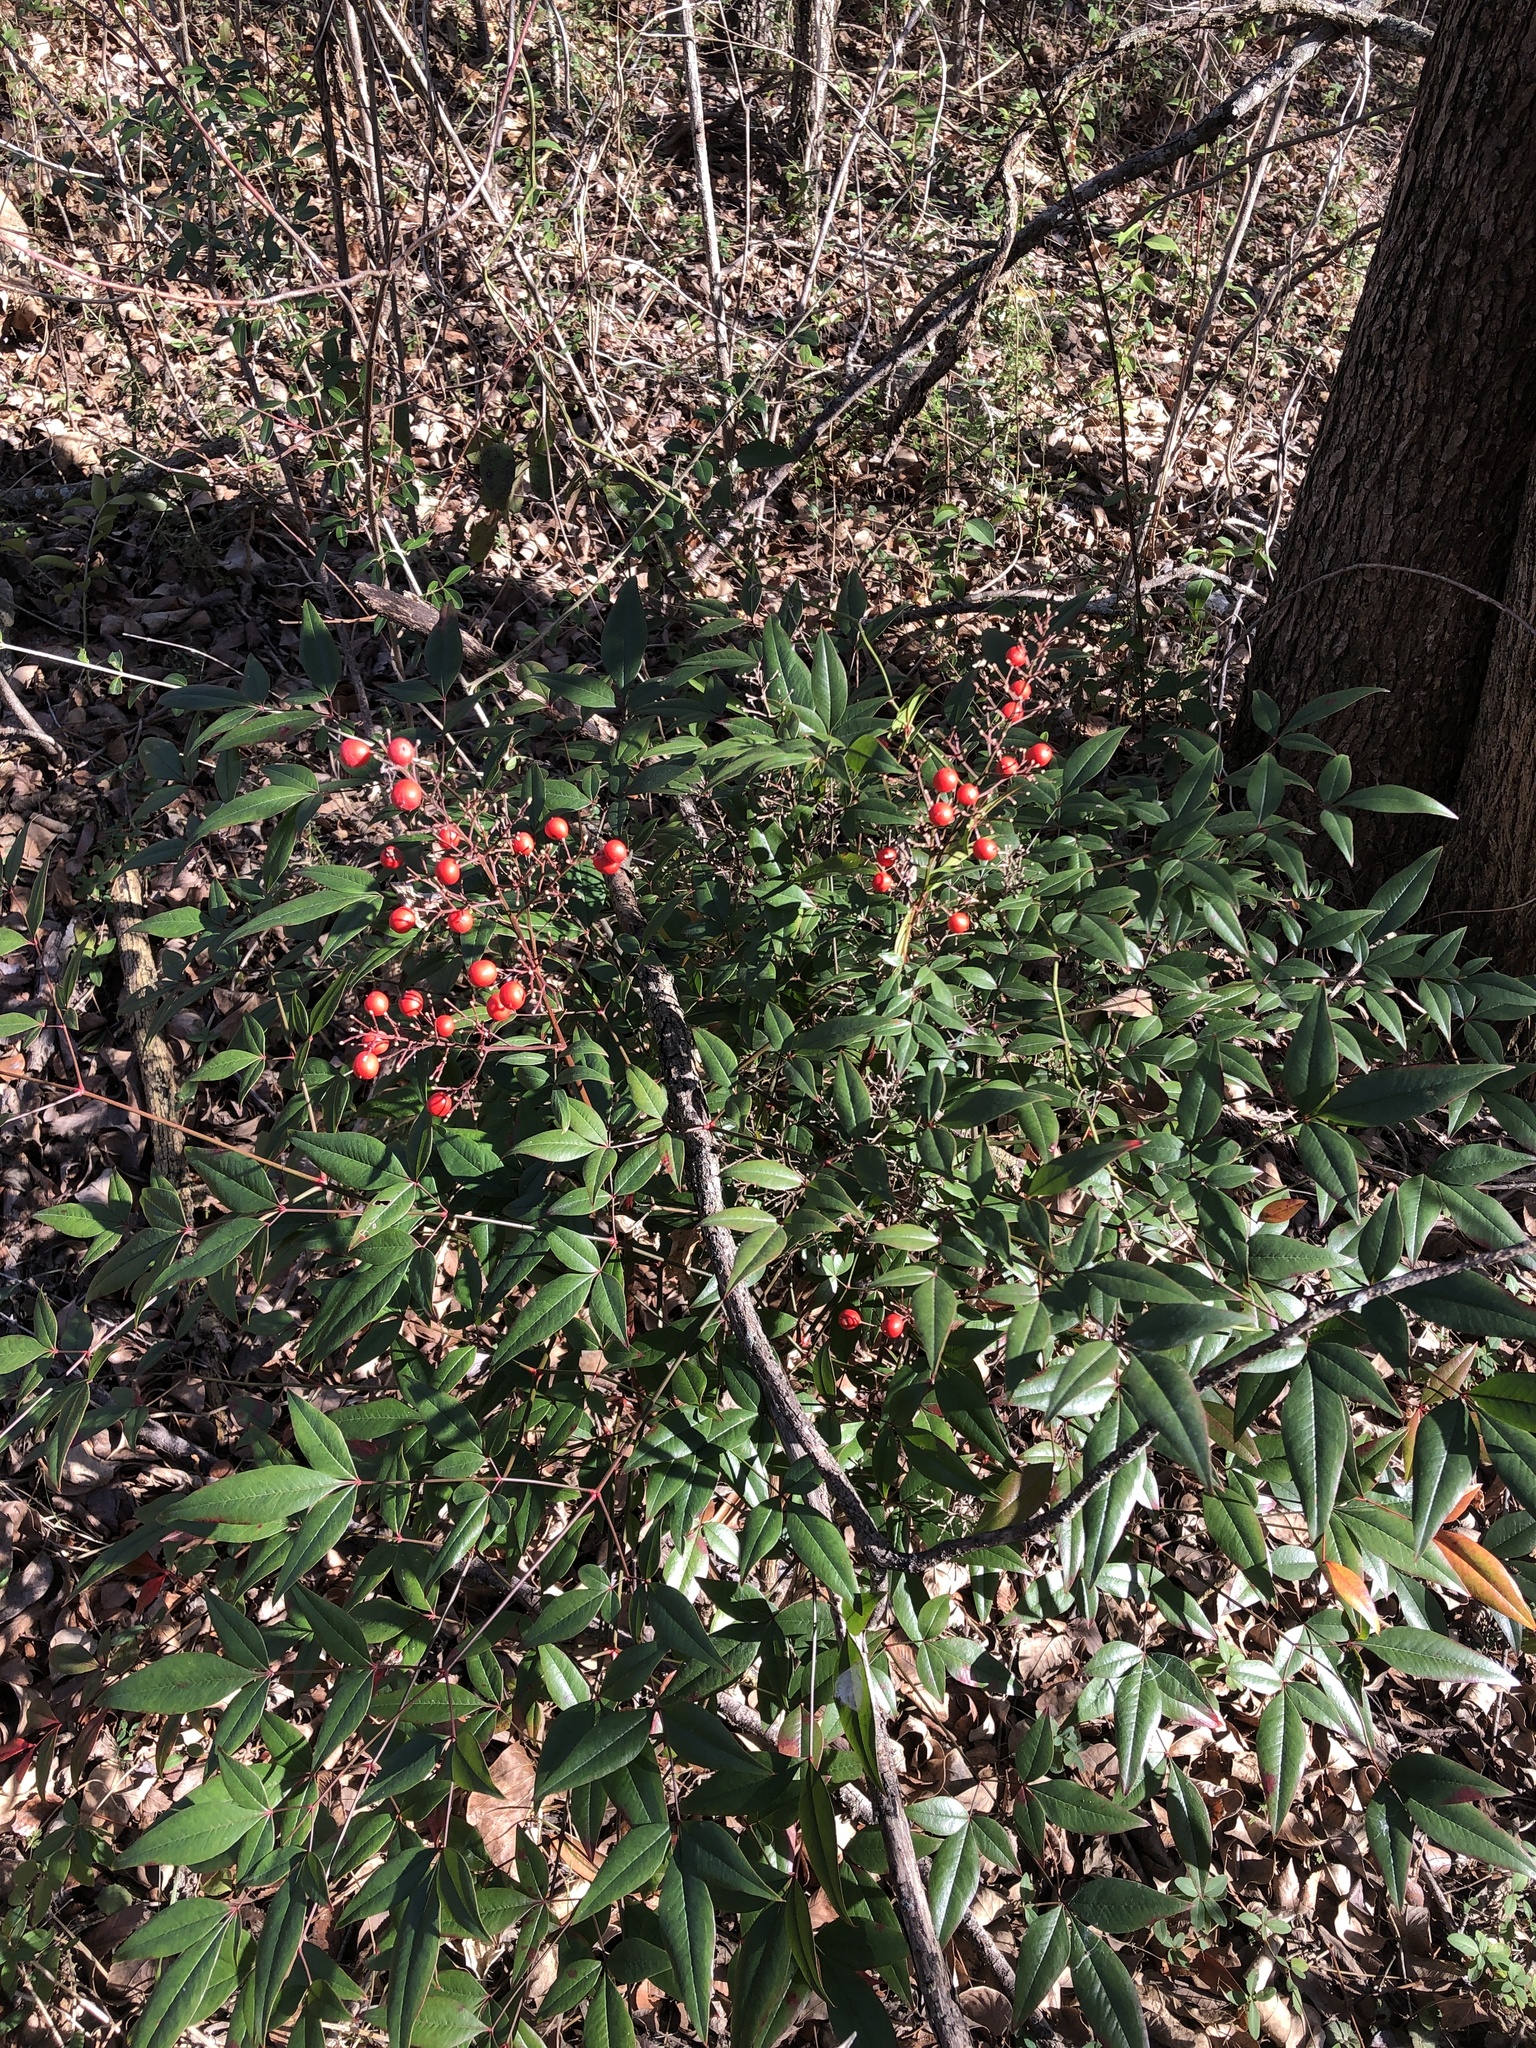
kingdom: Plantae
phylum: Tracheophyta
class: Magnoliopsida
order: Ranunculales
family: Berberidaceae
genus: Nandina
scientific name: Nandina domestica
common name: Sacred bamboo
